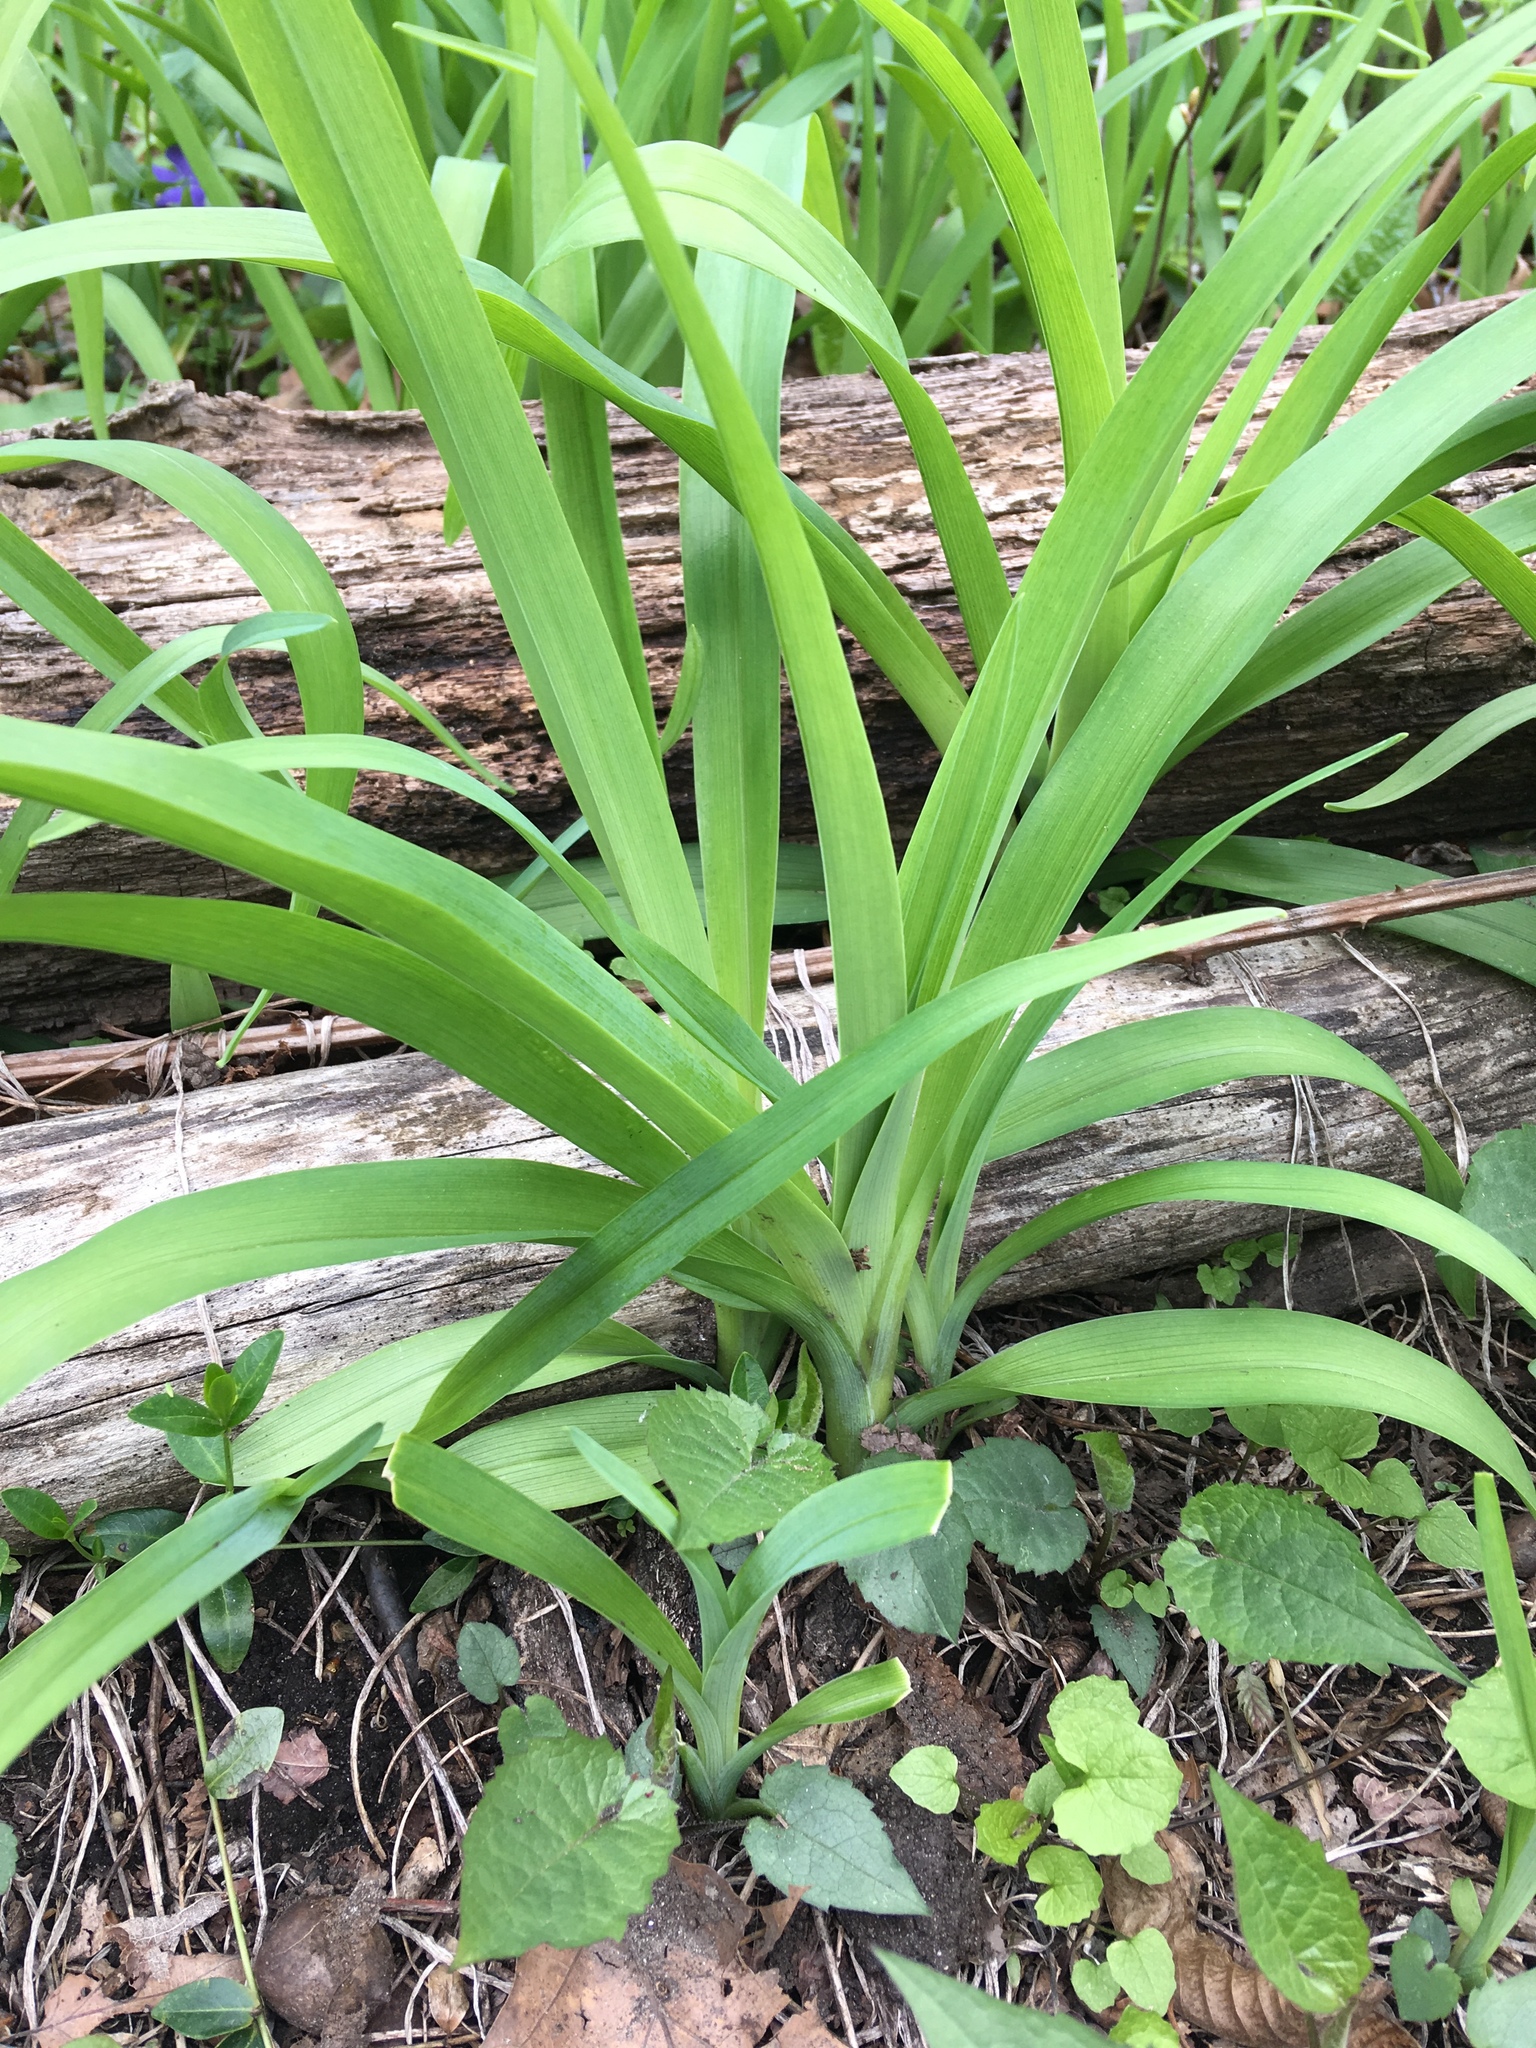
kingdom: Plantae
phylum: Tracheophyta
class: Liliopsida
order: Asparagales
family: Asphodelaceae
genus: Hemerocallis
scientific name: Hemerocallis fulva
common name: Orange day-lily
